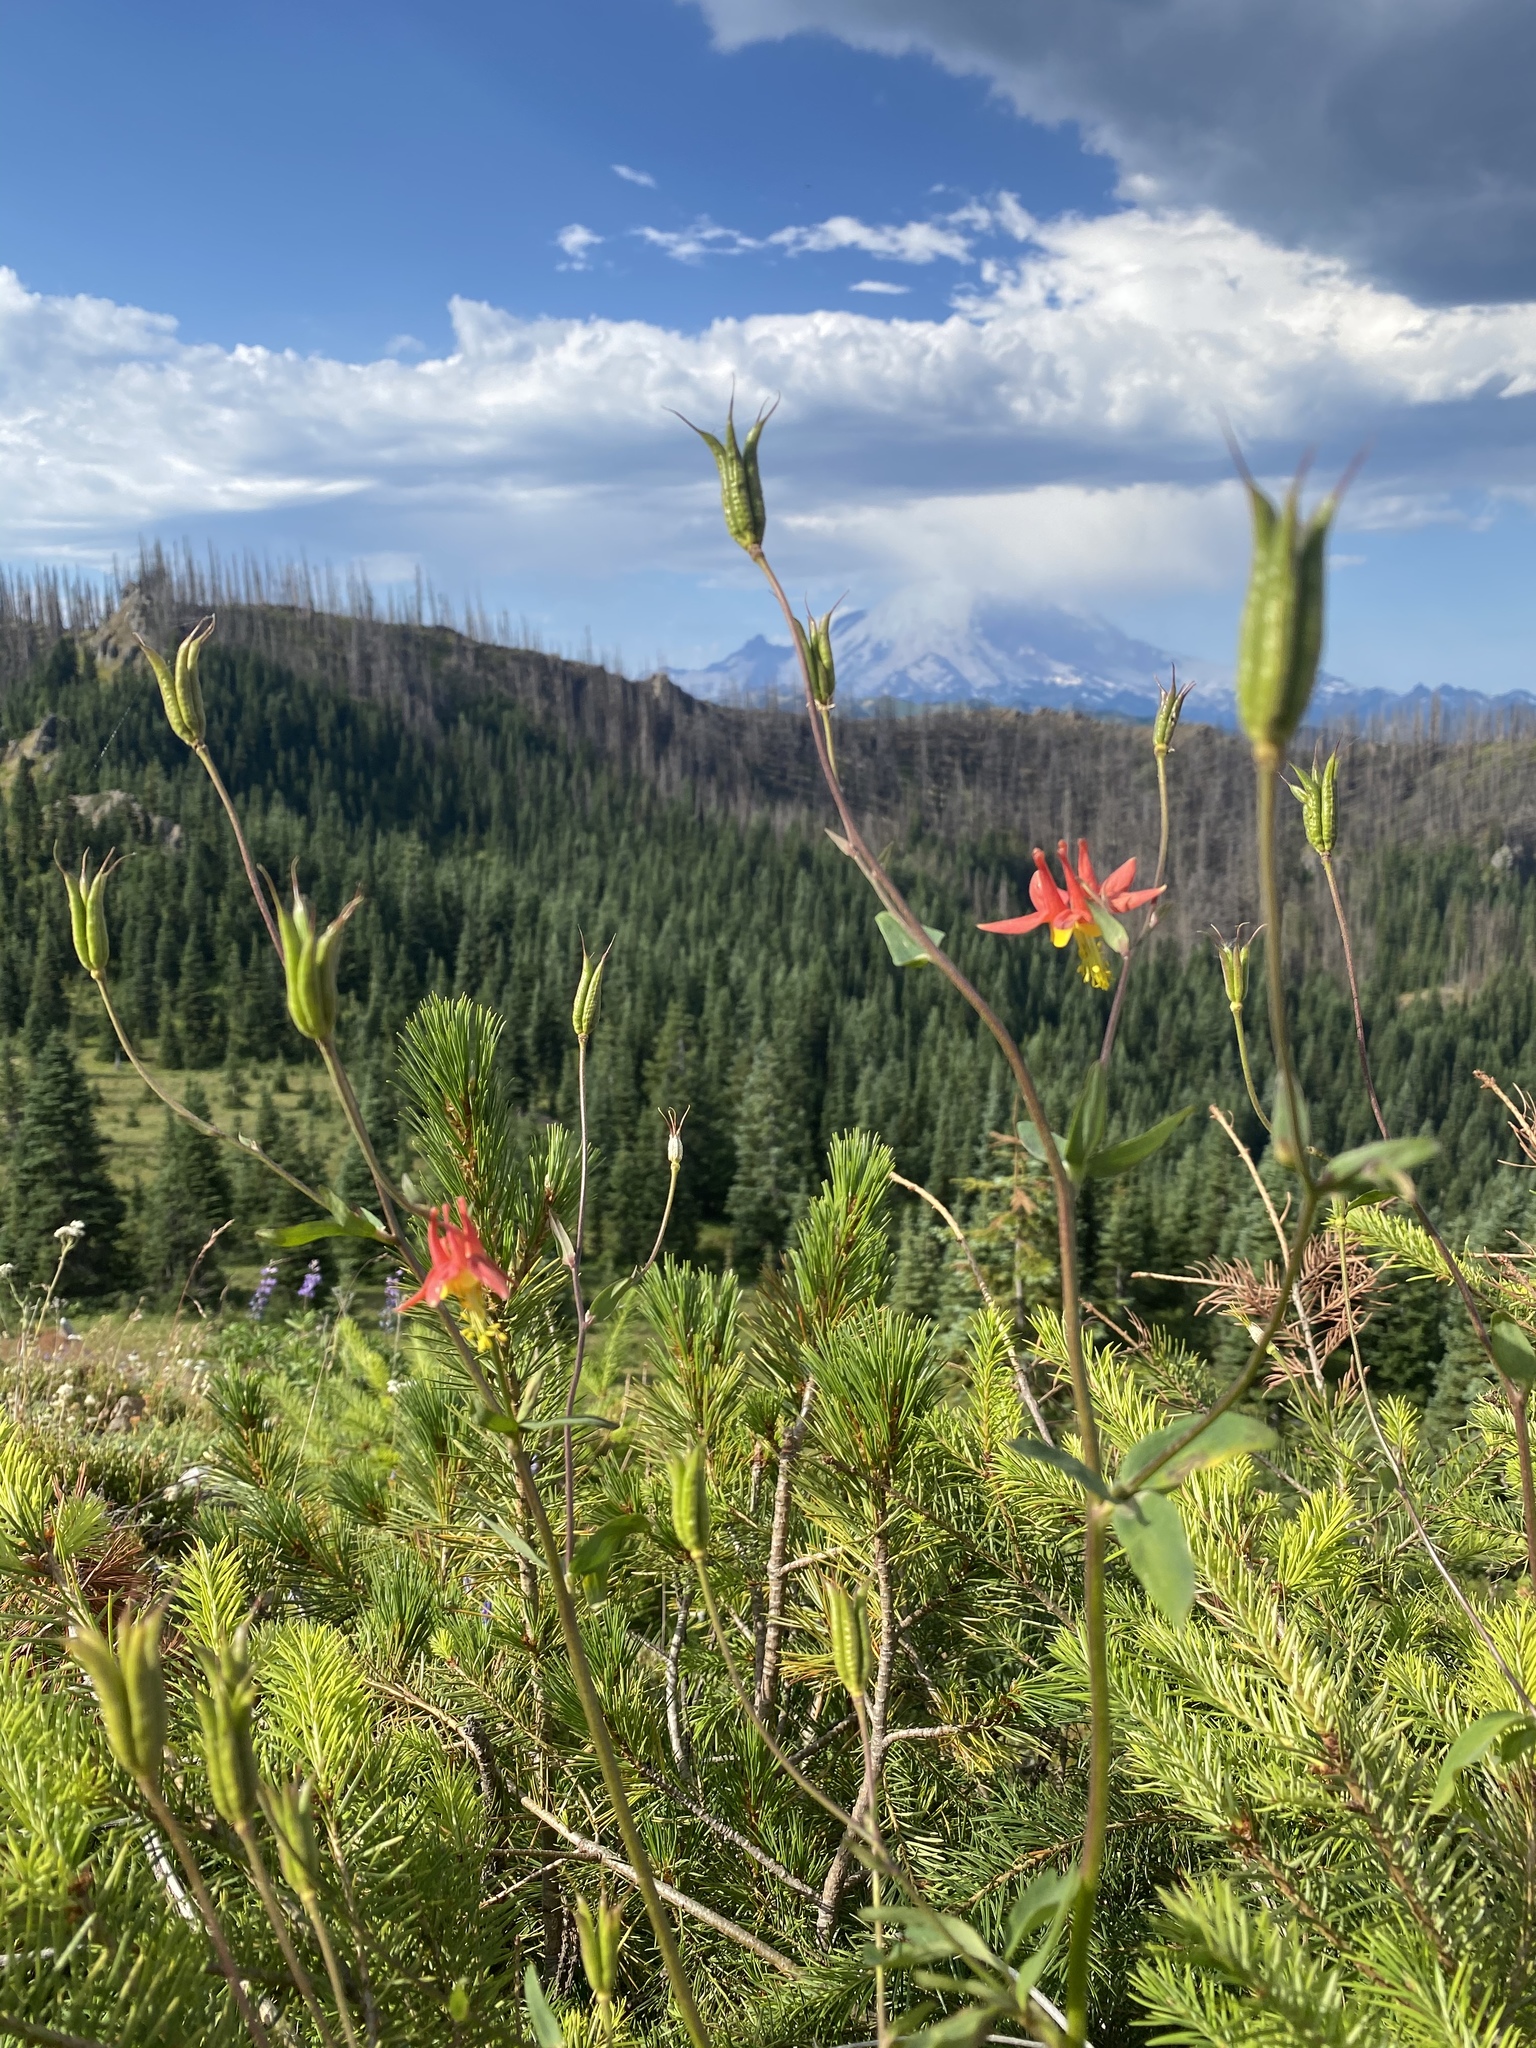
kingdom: Plantae
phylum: Tracheophyta
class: Magnoliopsida
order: Ranunculales
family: Ranunculaceae
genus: Aquilegia
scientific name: Aquilegia formosa
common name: Sitka columbine
